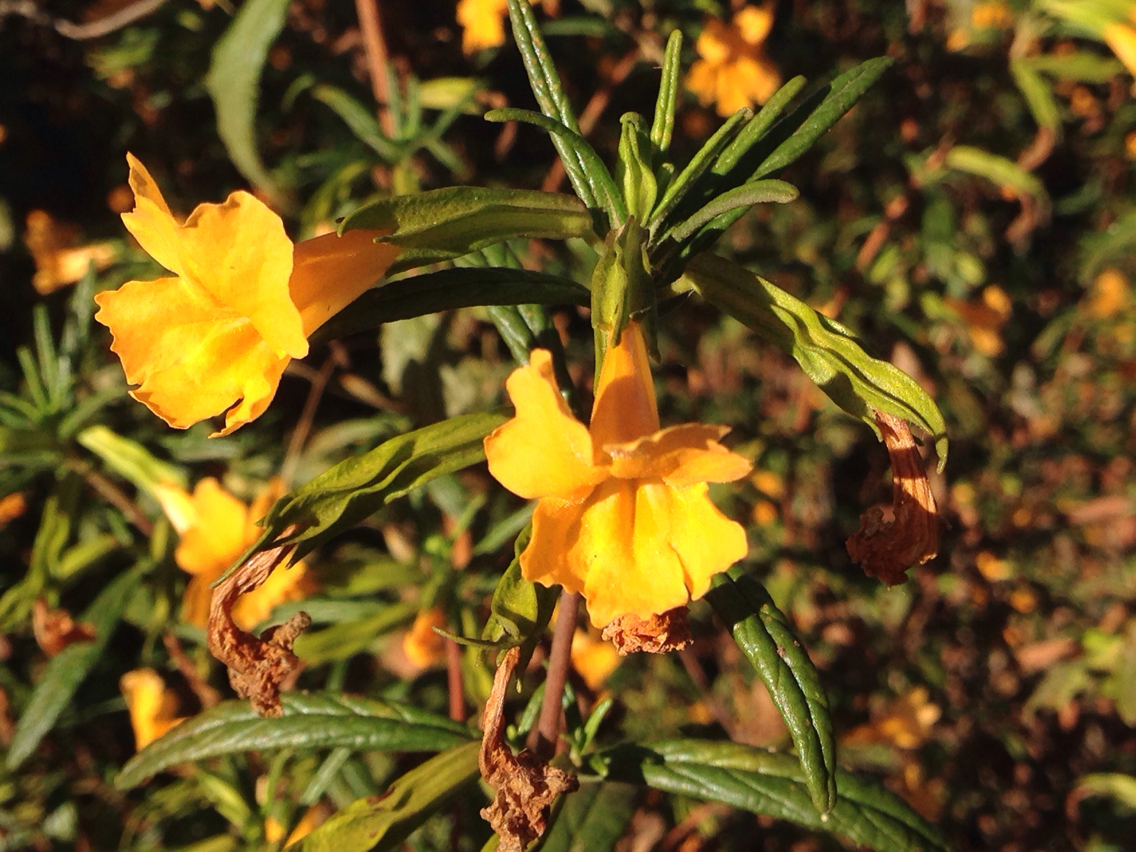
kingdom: Plantae
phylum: Tracheophyta
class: Magnoliopsida
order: Lamiales
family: Phrymaceae
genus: Diplacus
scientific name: Diplacus aurantiacus
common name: Bush monkey-flower
